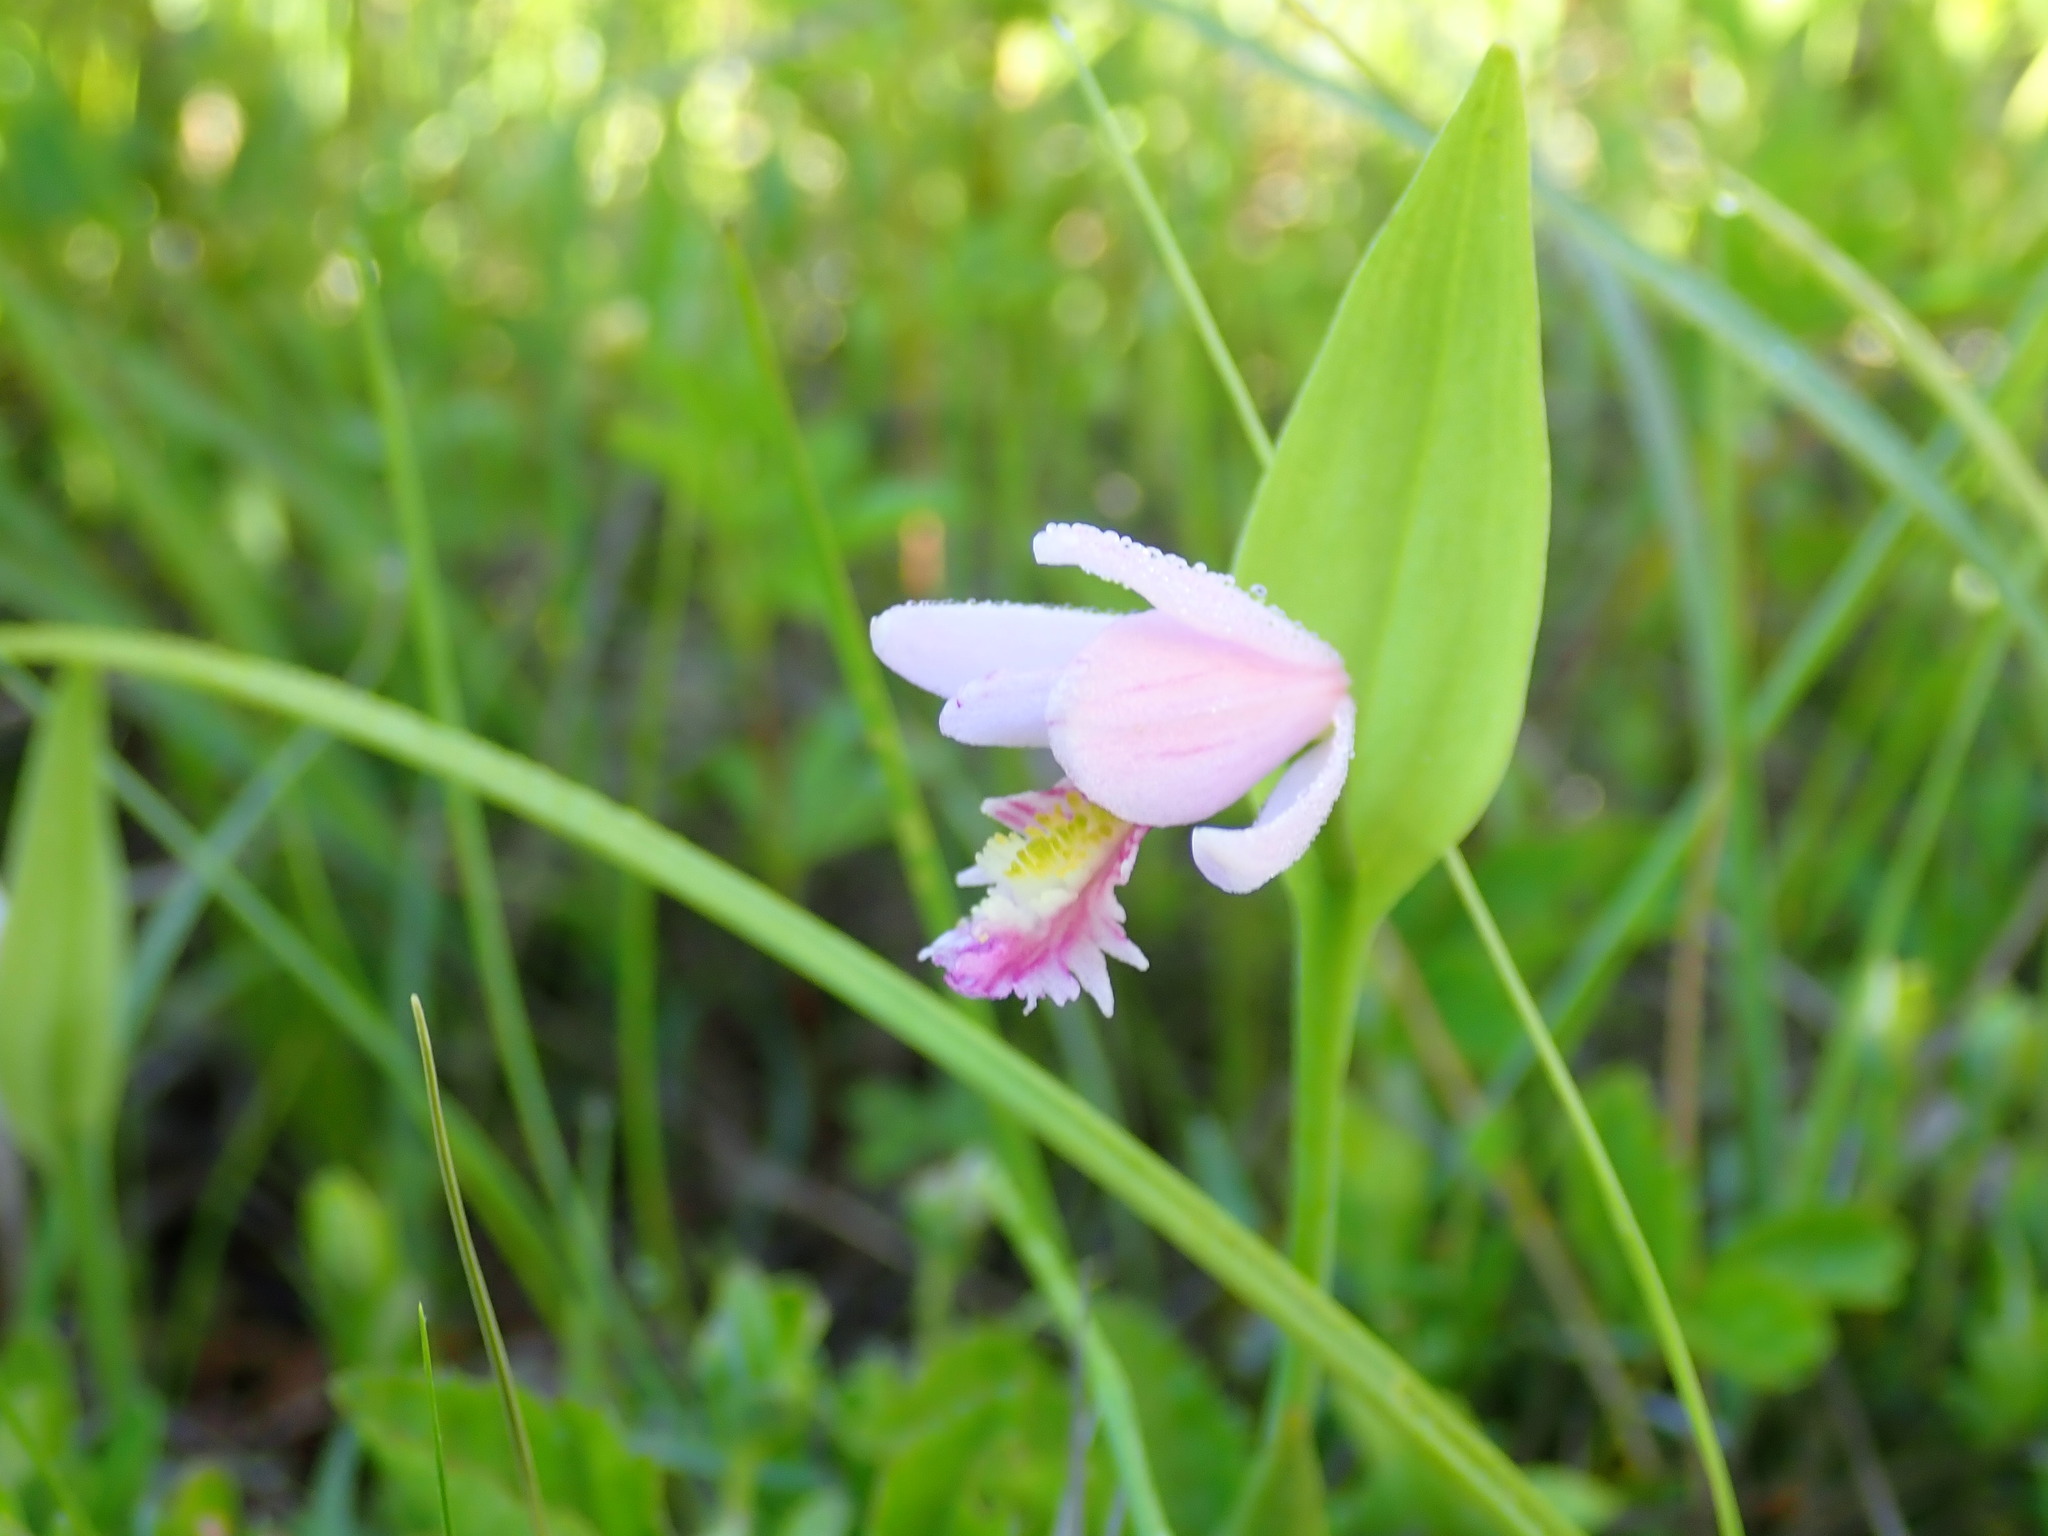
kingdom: Plantae
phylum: Tracheophyta
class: Liliopsida
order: Asparagales
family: Orchidaceae
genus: Pogonia
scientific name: Pogonia ophioglossoides
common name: Rose pogonia
